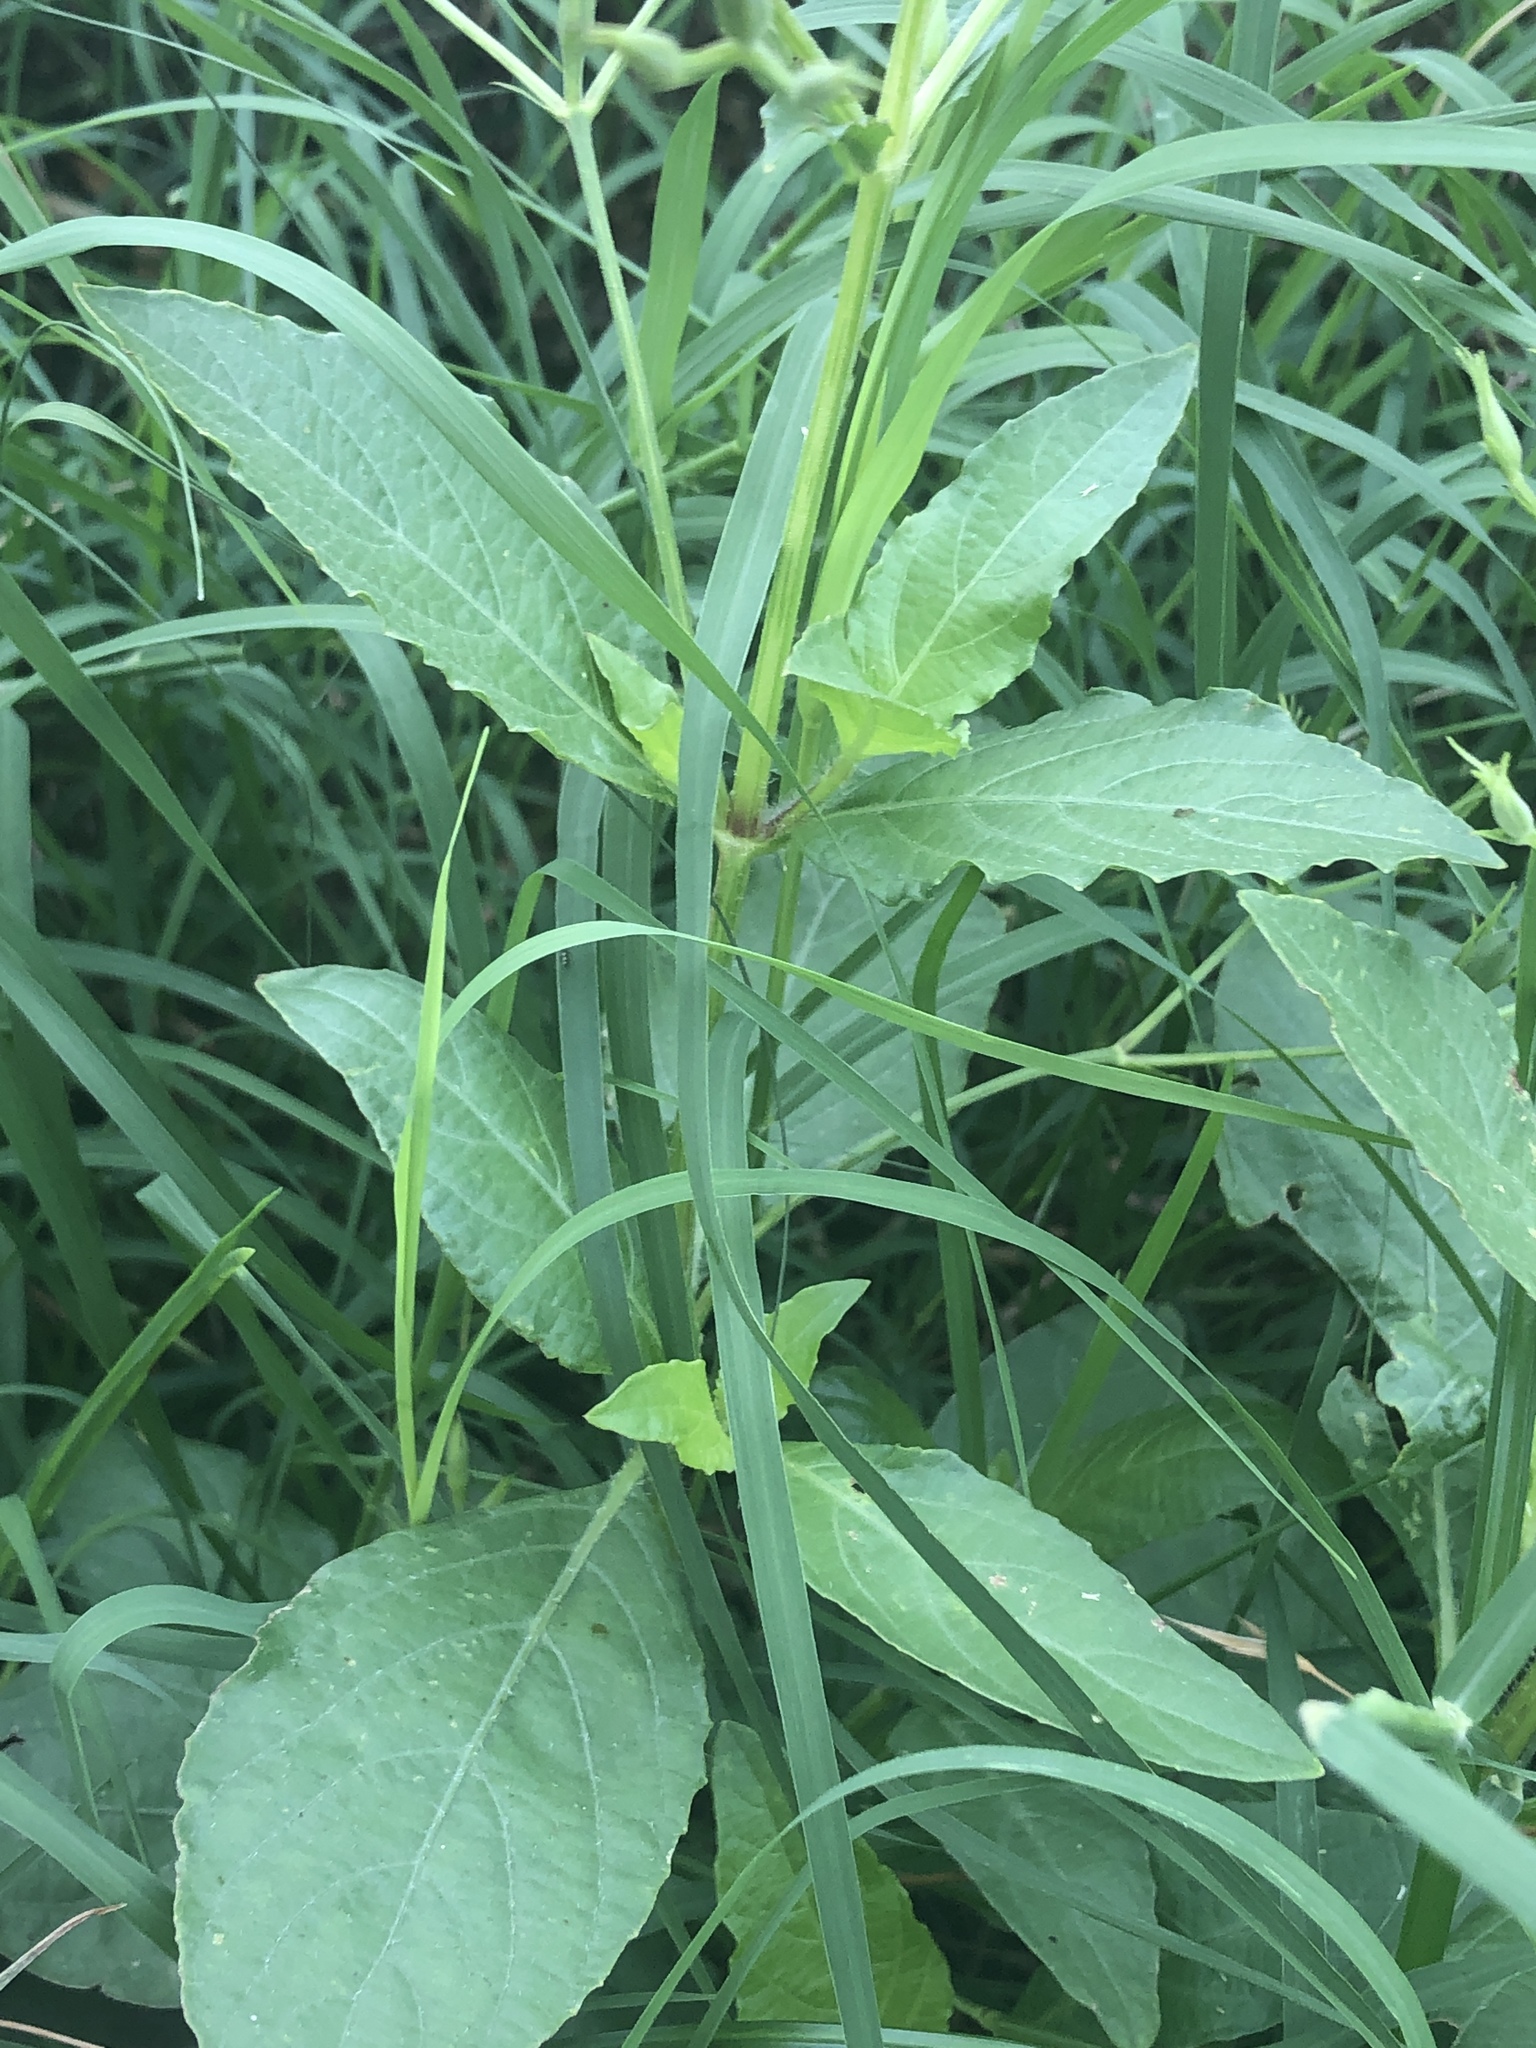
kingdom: Plantae
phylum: Tracheophyta
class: Magnoliopsida
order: Lamiales
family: Acanthaceae
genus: Ruellia
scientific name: Ruellia ciliatiflora
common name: Hairyflower wild petunia
